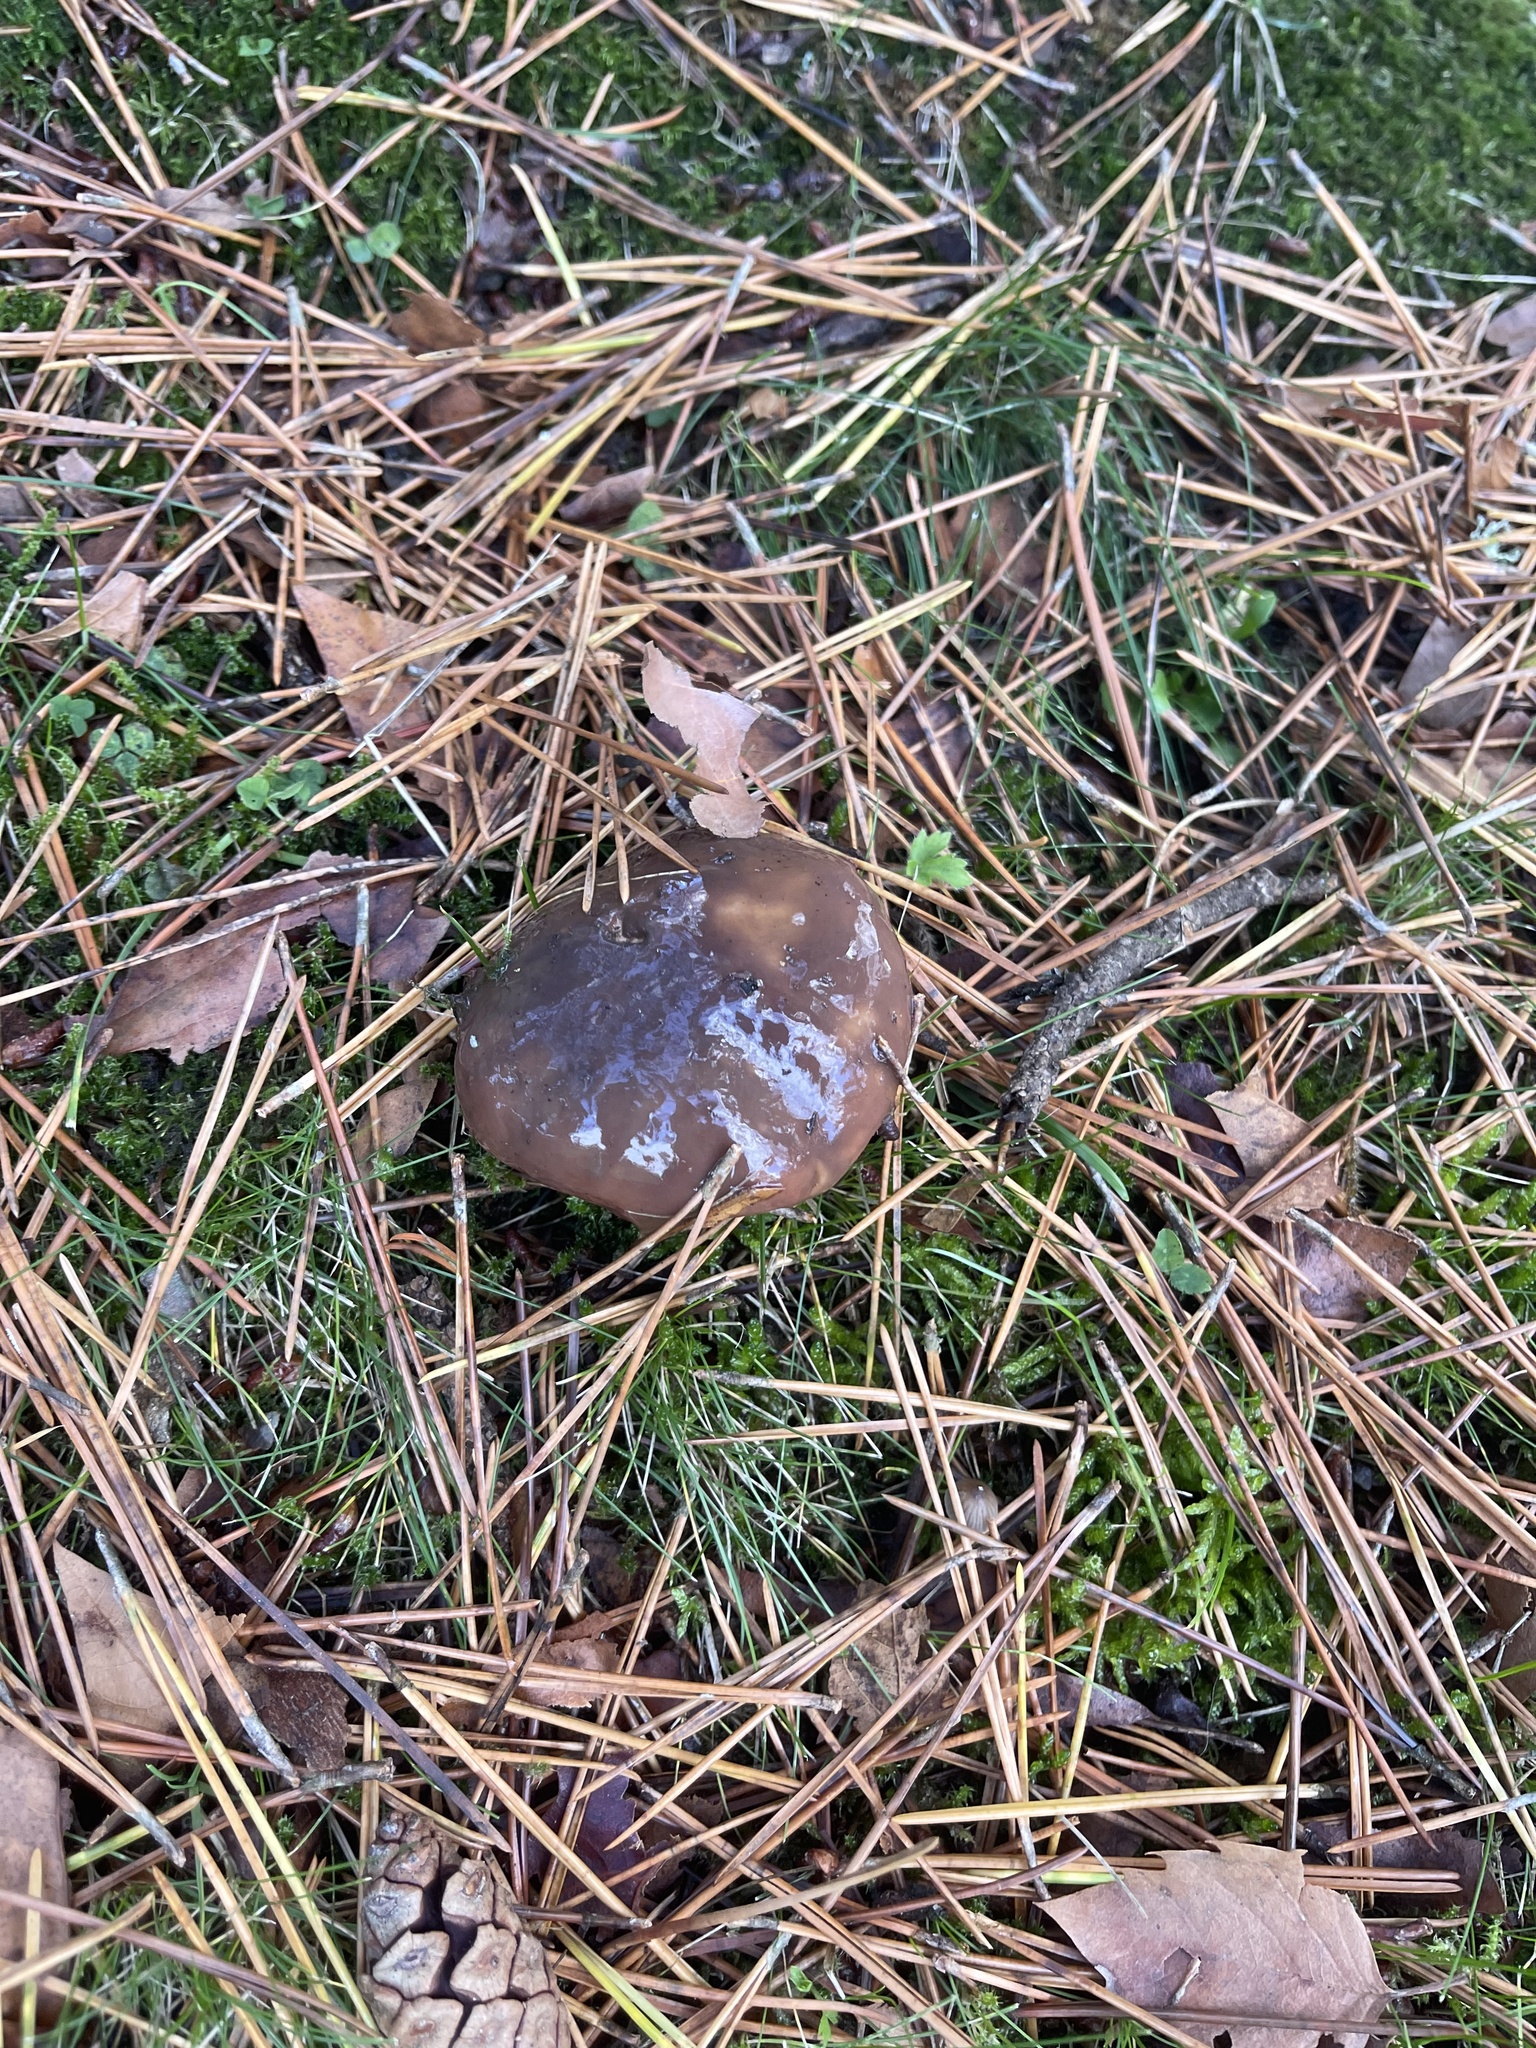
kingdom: Fungi
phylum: Basidiomycota
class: Agaricomycetes
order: Boletales
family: Suillaceae
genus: Suillus
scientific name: Suillus luteus
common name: Slippery jack
